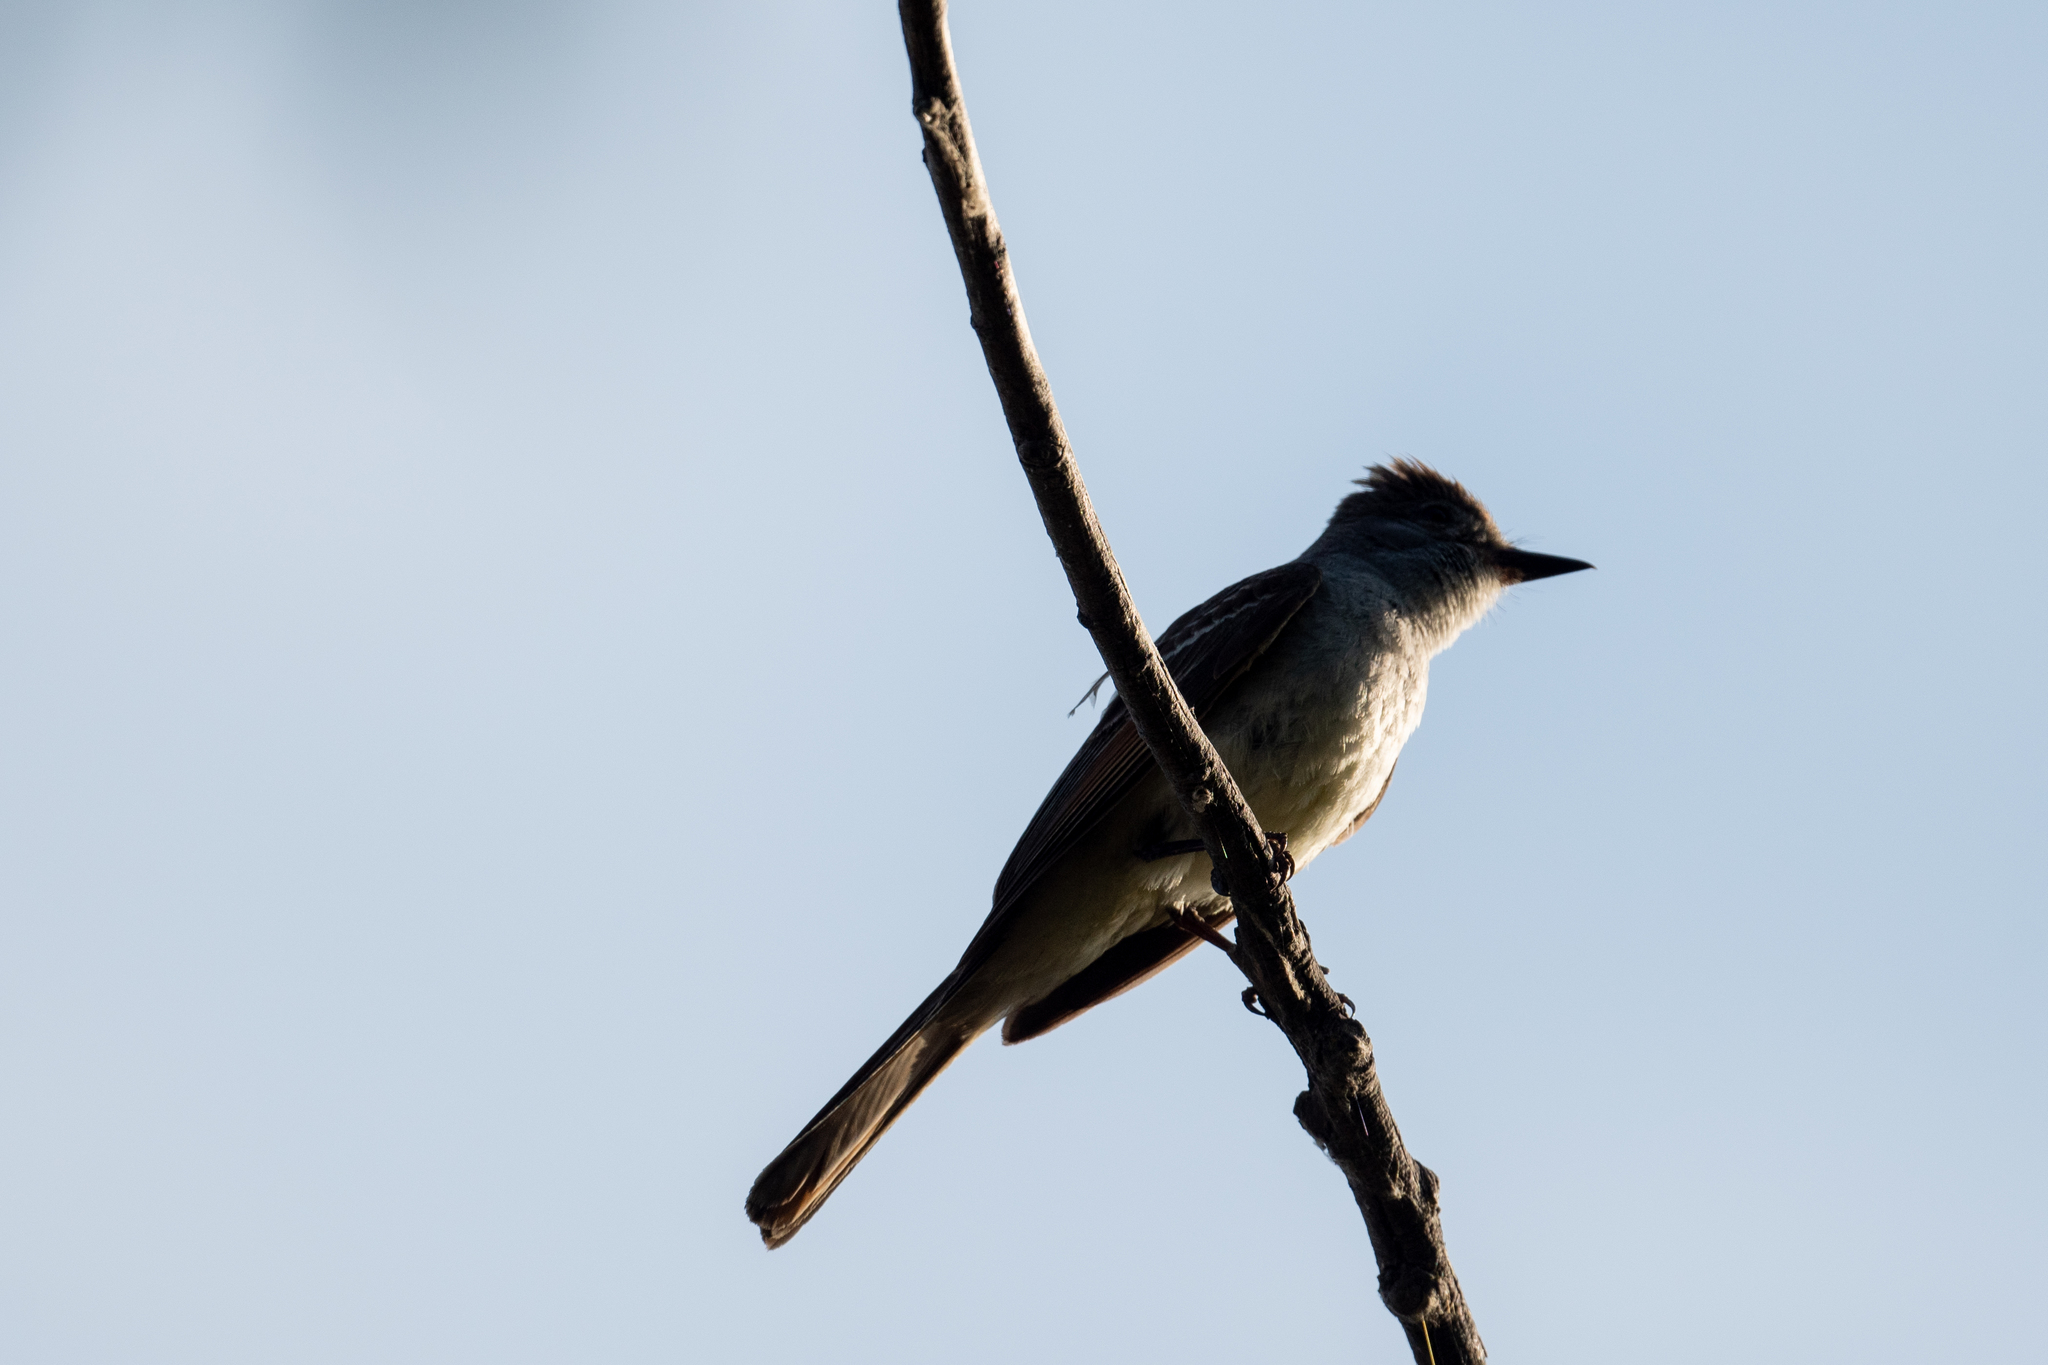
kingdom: Animalia
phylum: Chordata
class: Aves
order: Passeriformes
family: Tyrannidae
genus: Myiarchus
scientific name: Myiarchus cinerascens
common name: Ash-throated flycatcher
